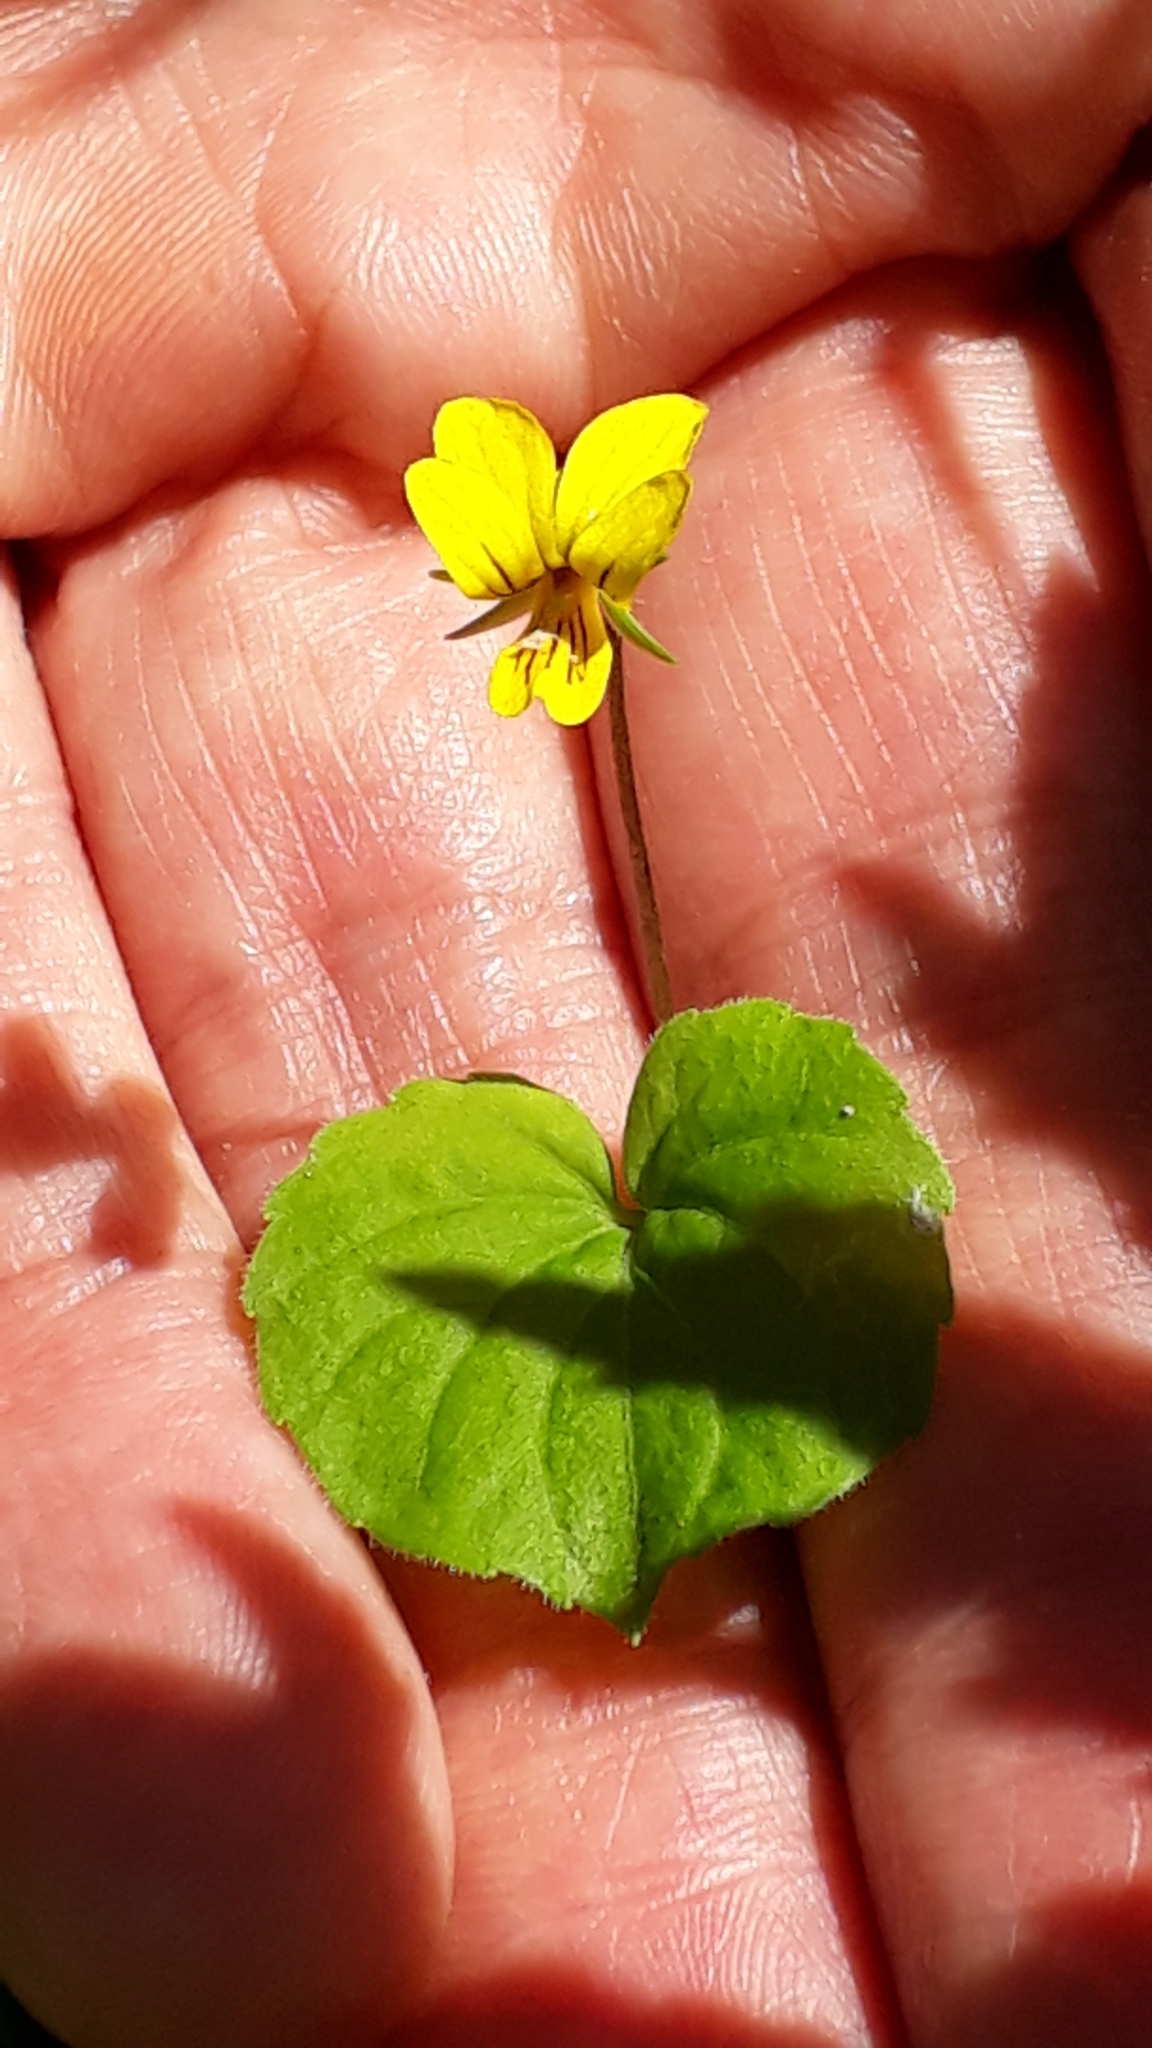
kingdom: Plantae
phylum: Tracheophyta
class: Magnoliopsida
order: Malpighiales
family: Violaceae
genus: Viola
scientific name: Viola biflora
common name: Alpine yellow violet
